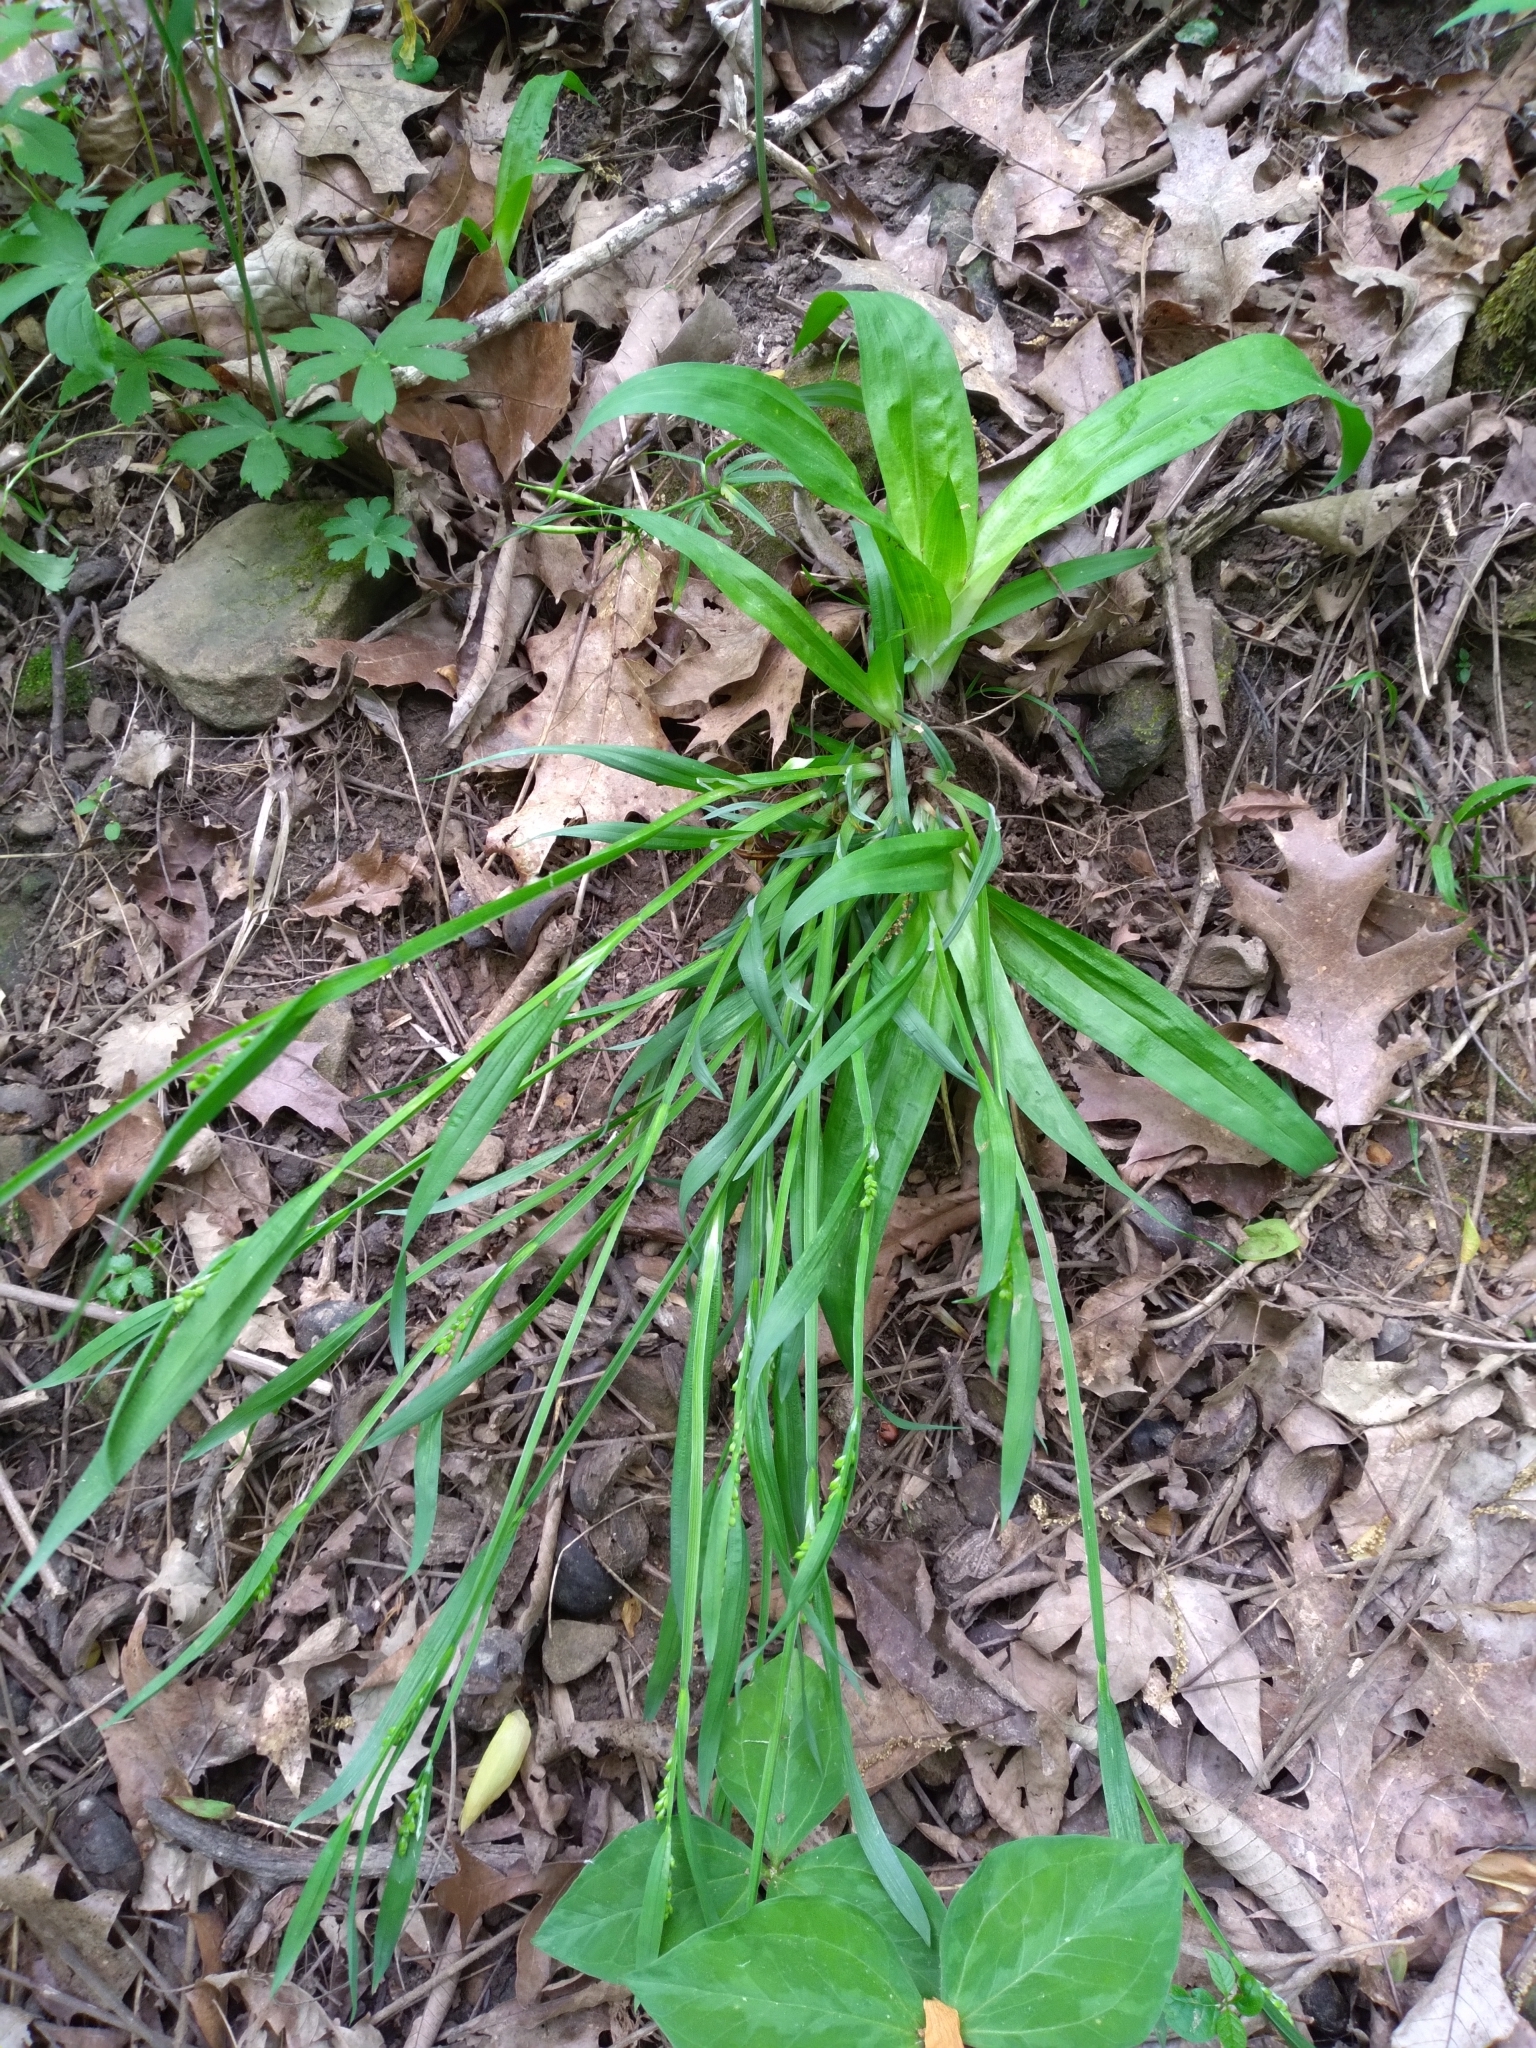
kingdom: Plantae
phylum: Tracheophyta
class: Liliopsida
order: Poales
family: Cyperaceae
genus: Carex
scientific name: Carex albursina
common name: Blunt-scale wood sedge
